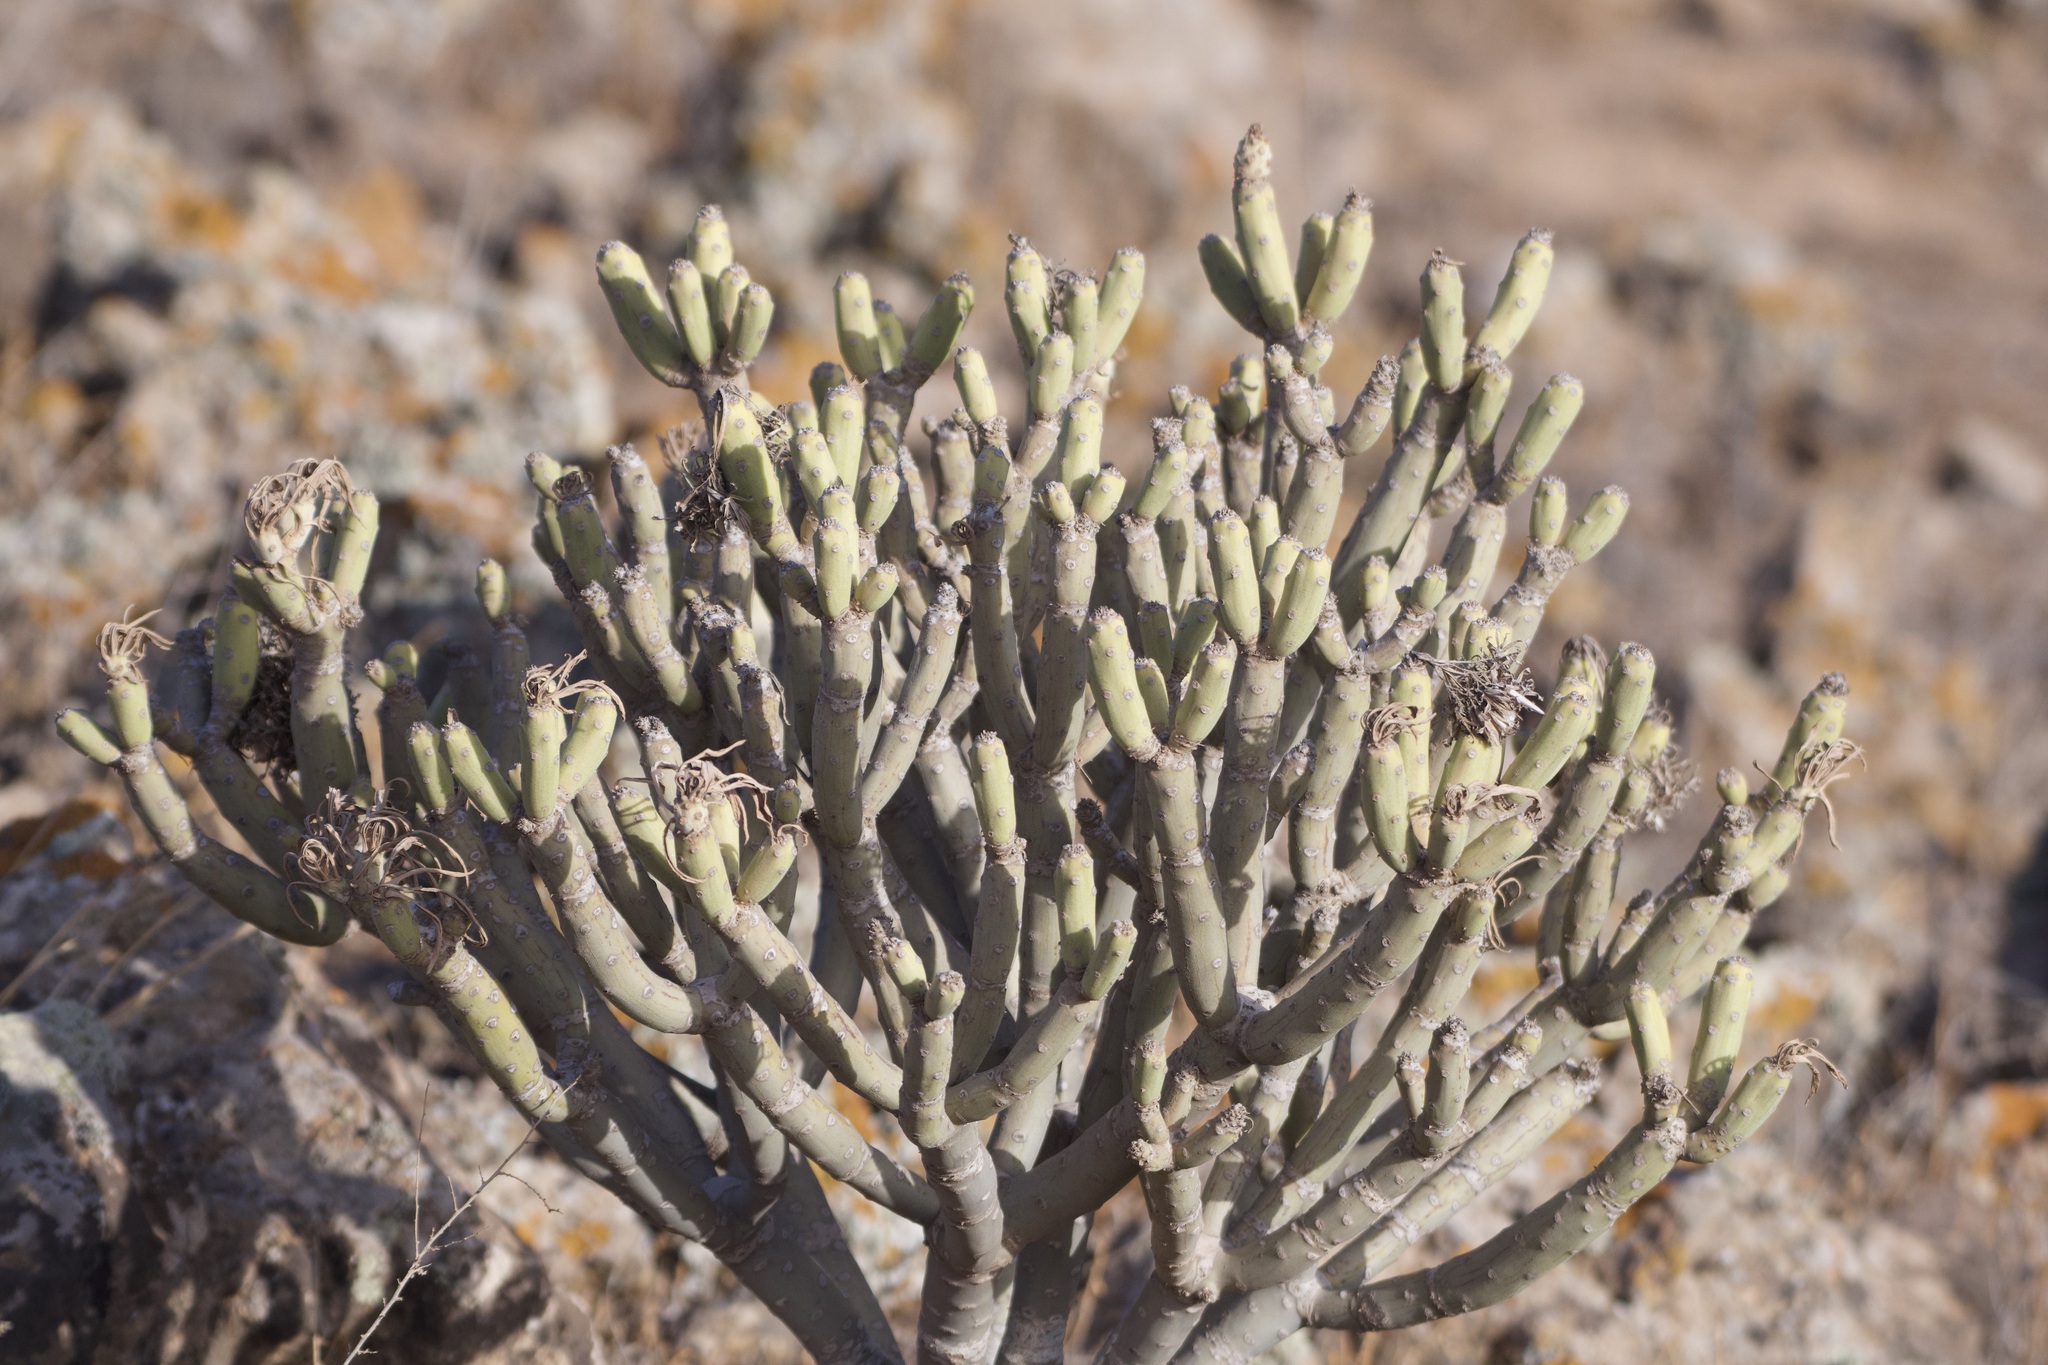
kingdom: Plantae
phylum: Tracheophyta
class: Magnoliopsida
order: Asterales
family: Asteraceae
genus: Kleinia
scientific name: Kleinia neriifolia
